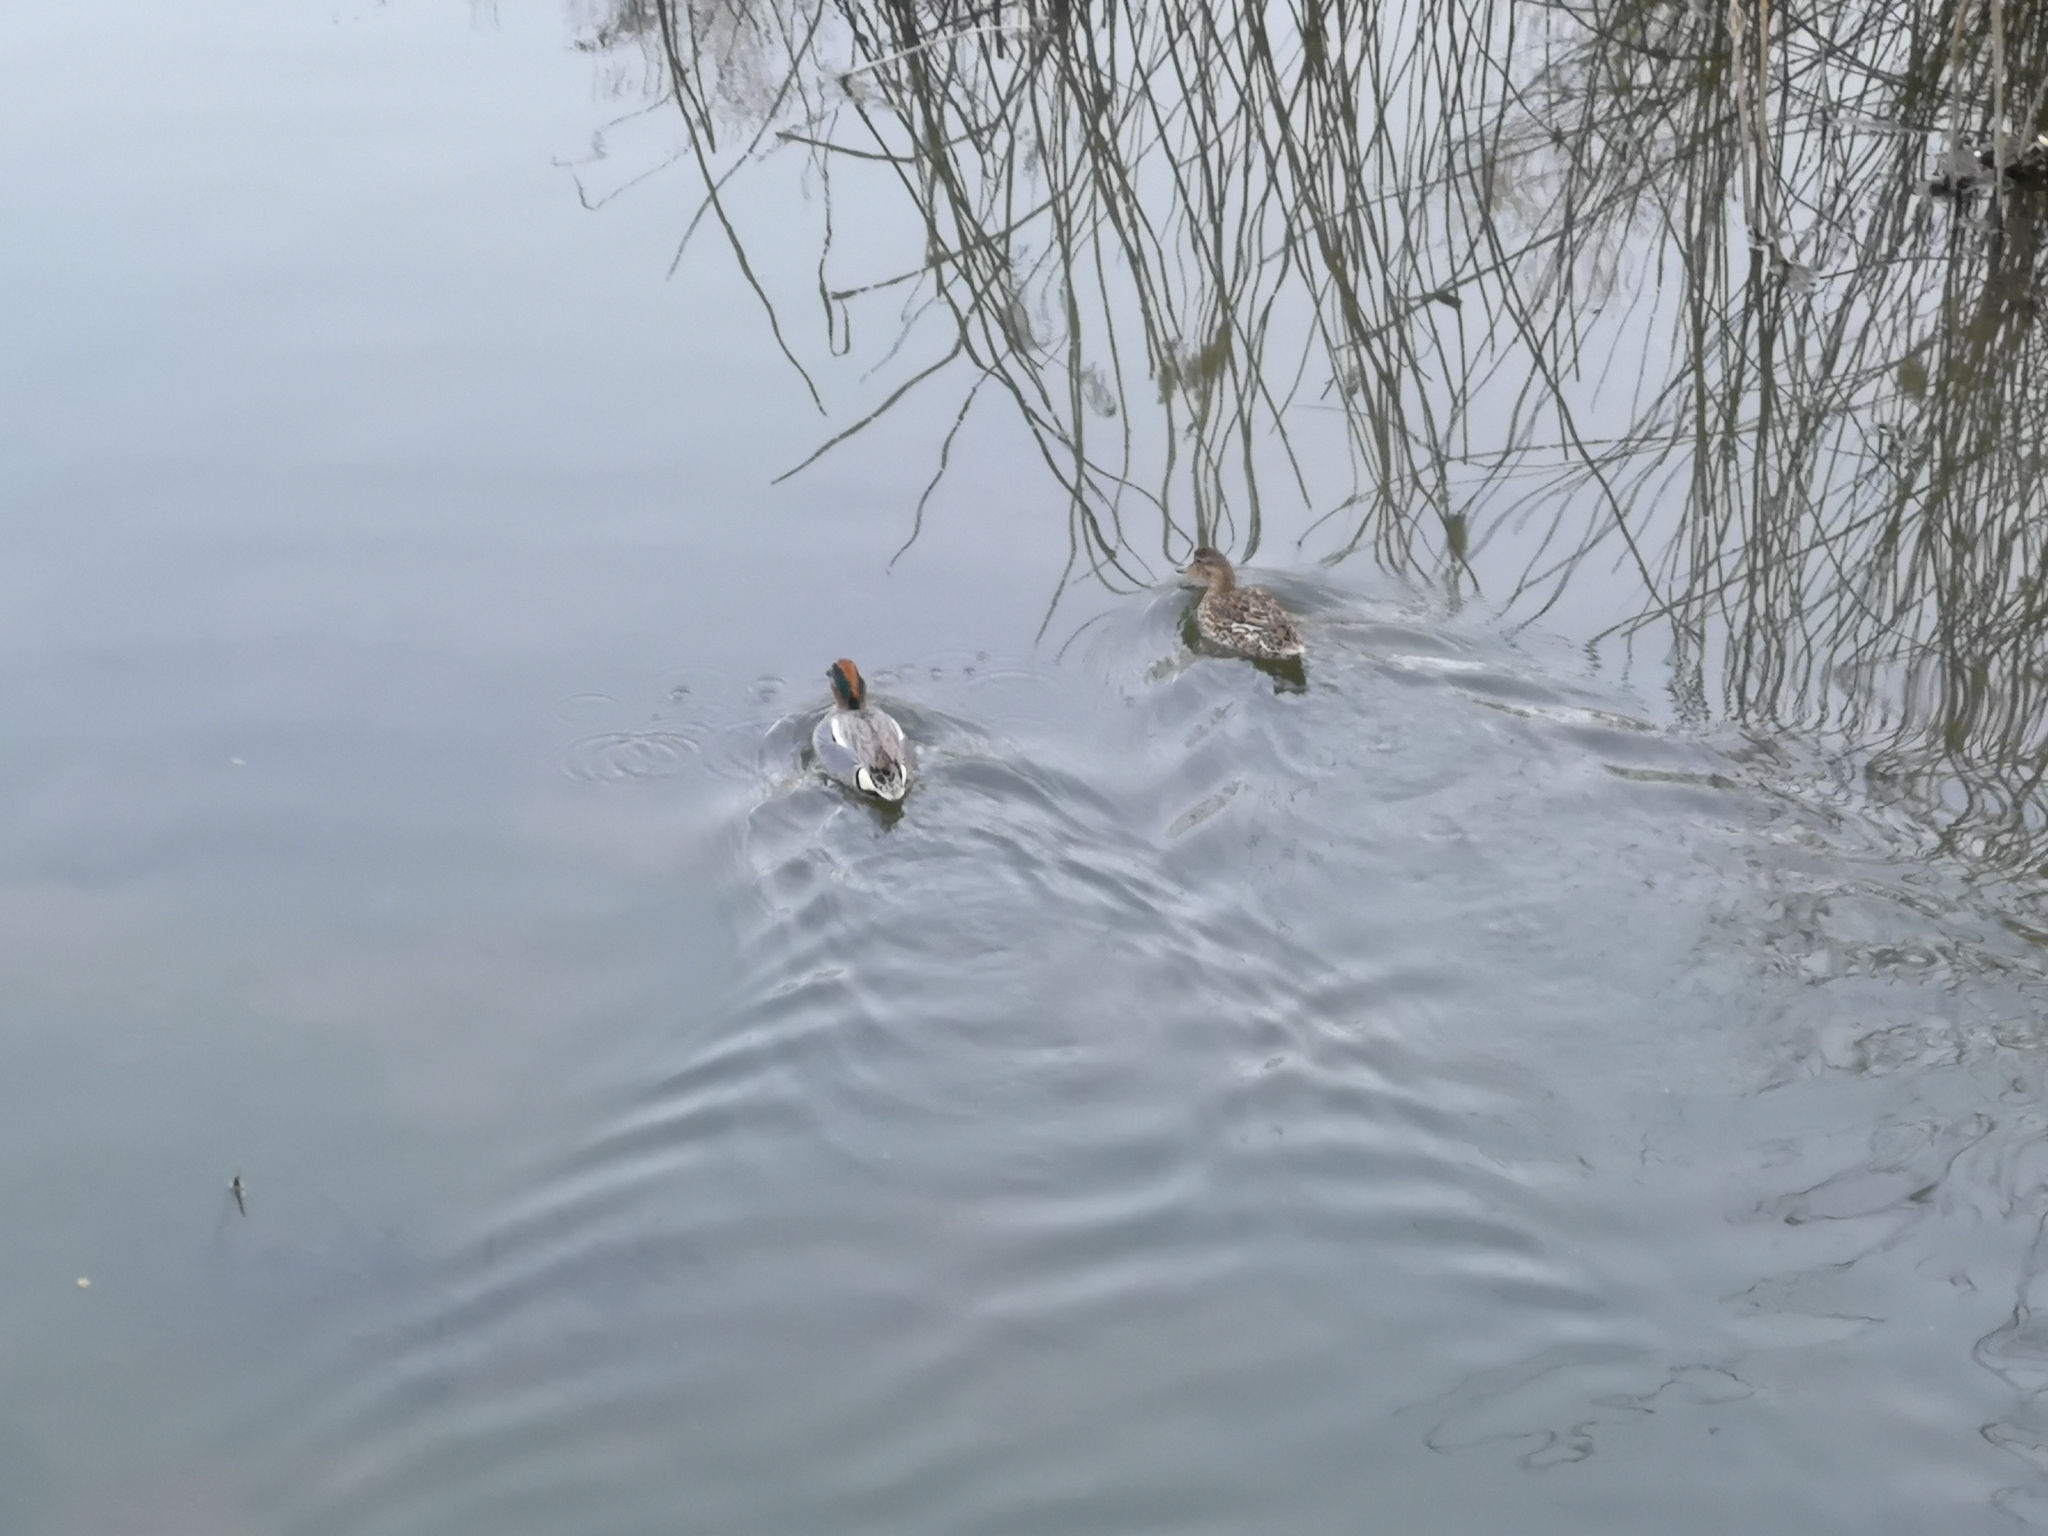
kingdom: Animalia
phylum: Chordata
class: Aves
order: Anseriformes
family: Anatidae
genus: Anas
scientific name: Anas crecca
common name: Eurasian teal
